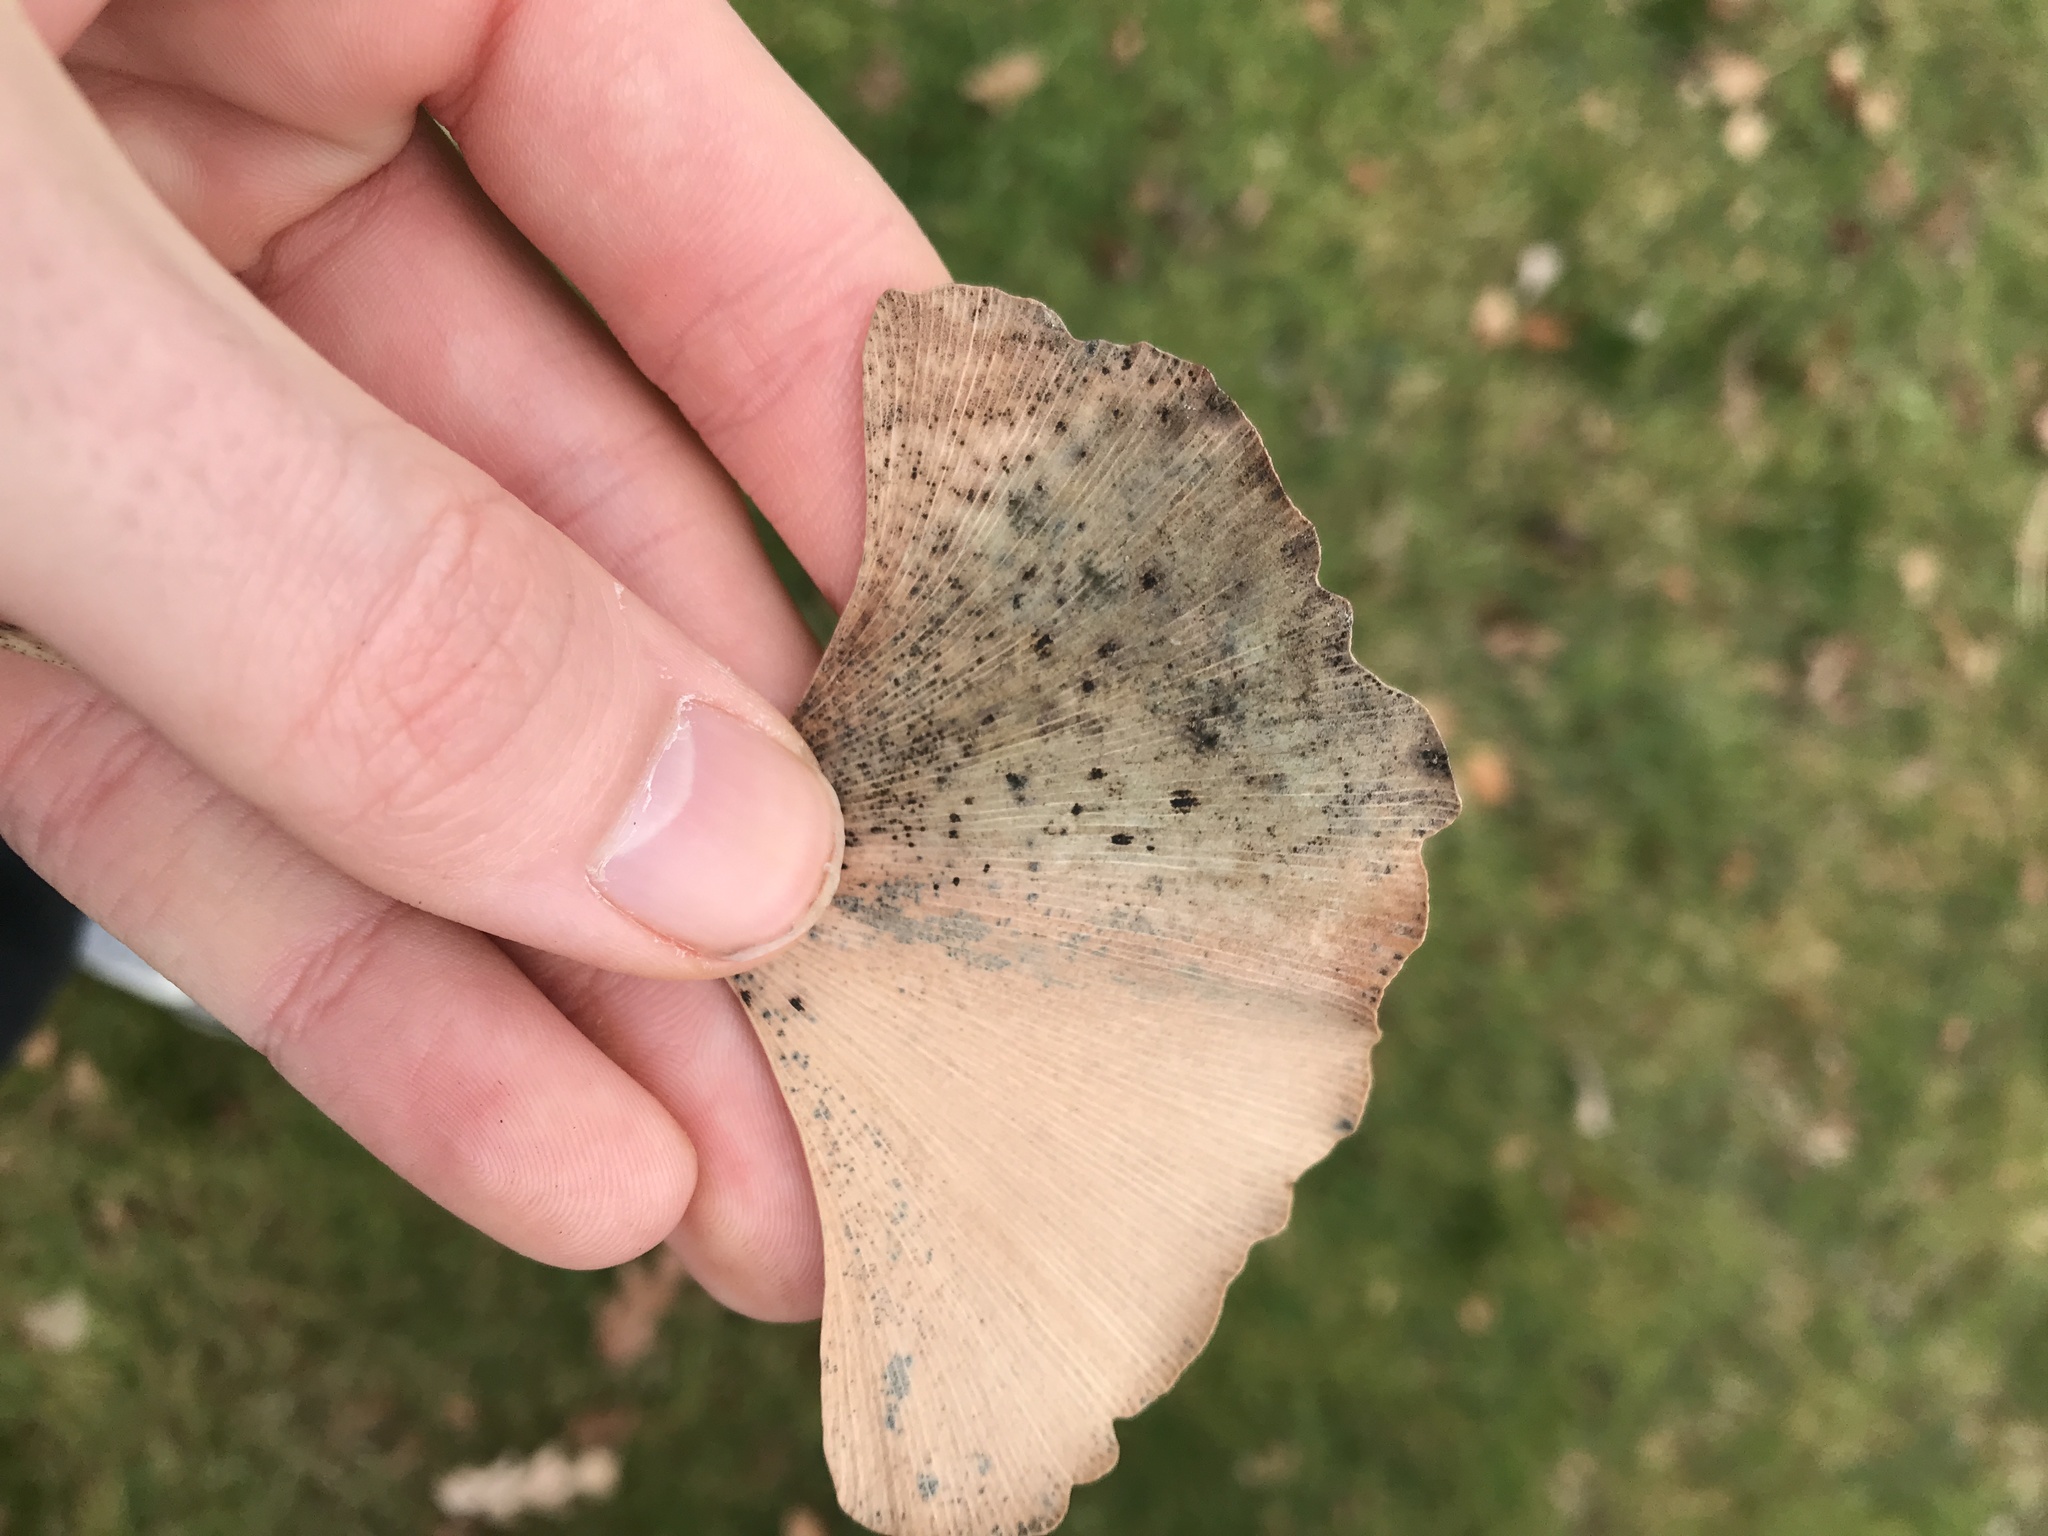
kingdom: Fungi
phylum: Basidiomycota
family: Bartheletiaceae
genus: Bartheletia
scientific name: Bartheletia paradoxa
